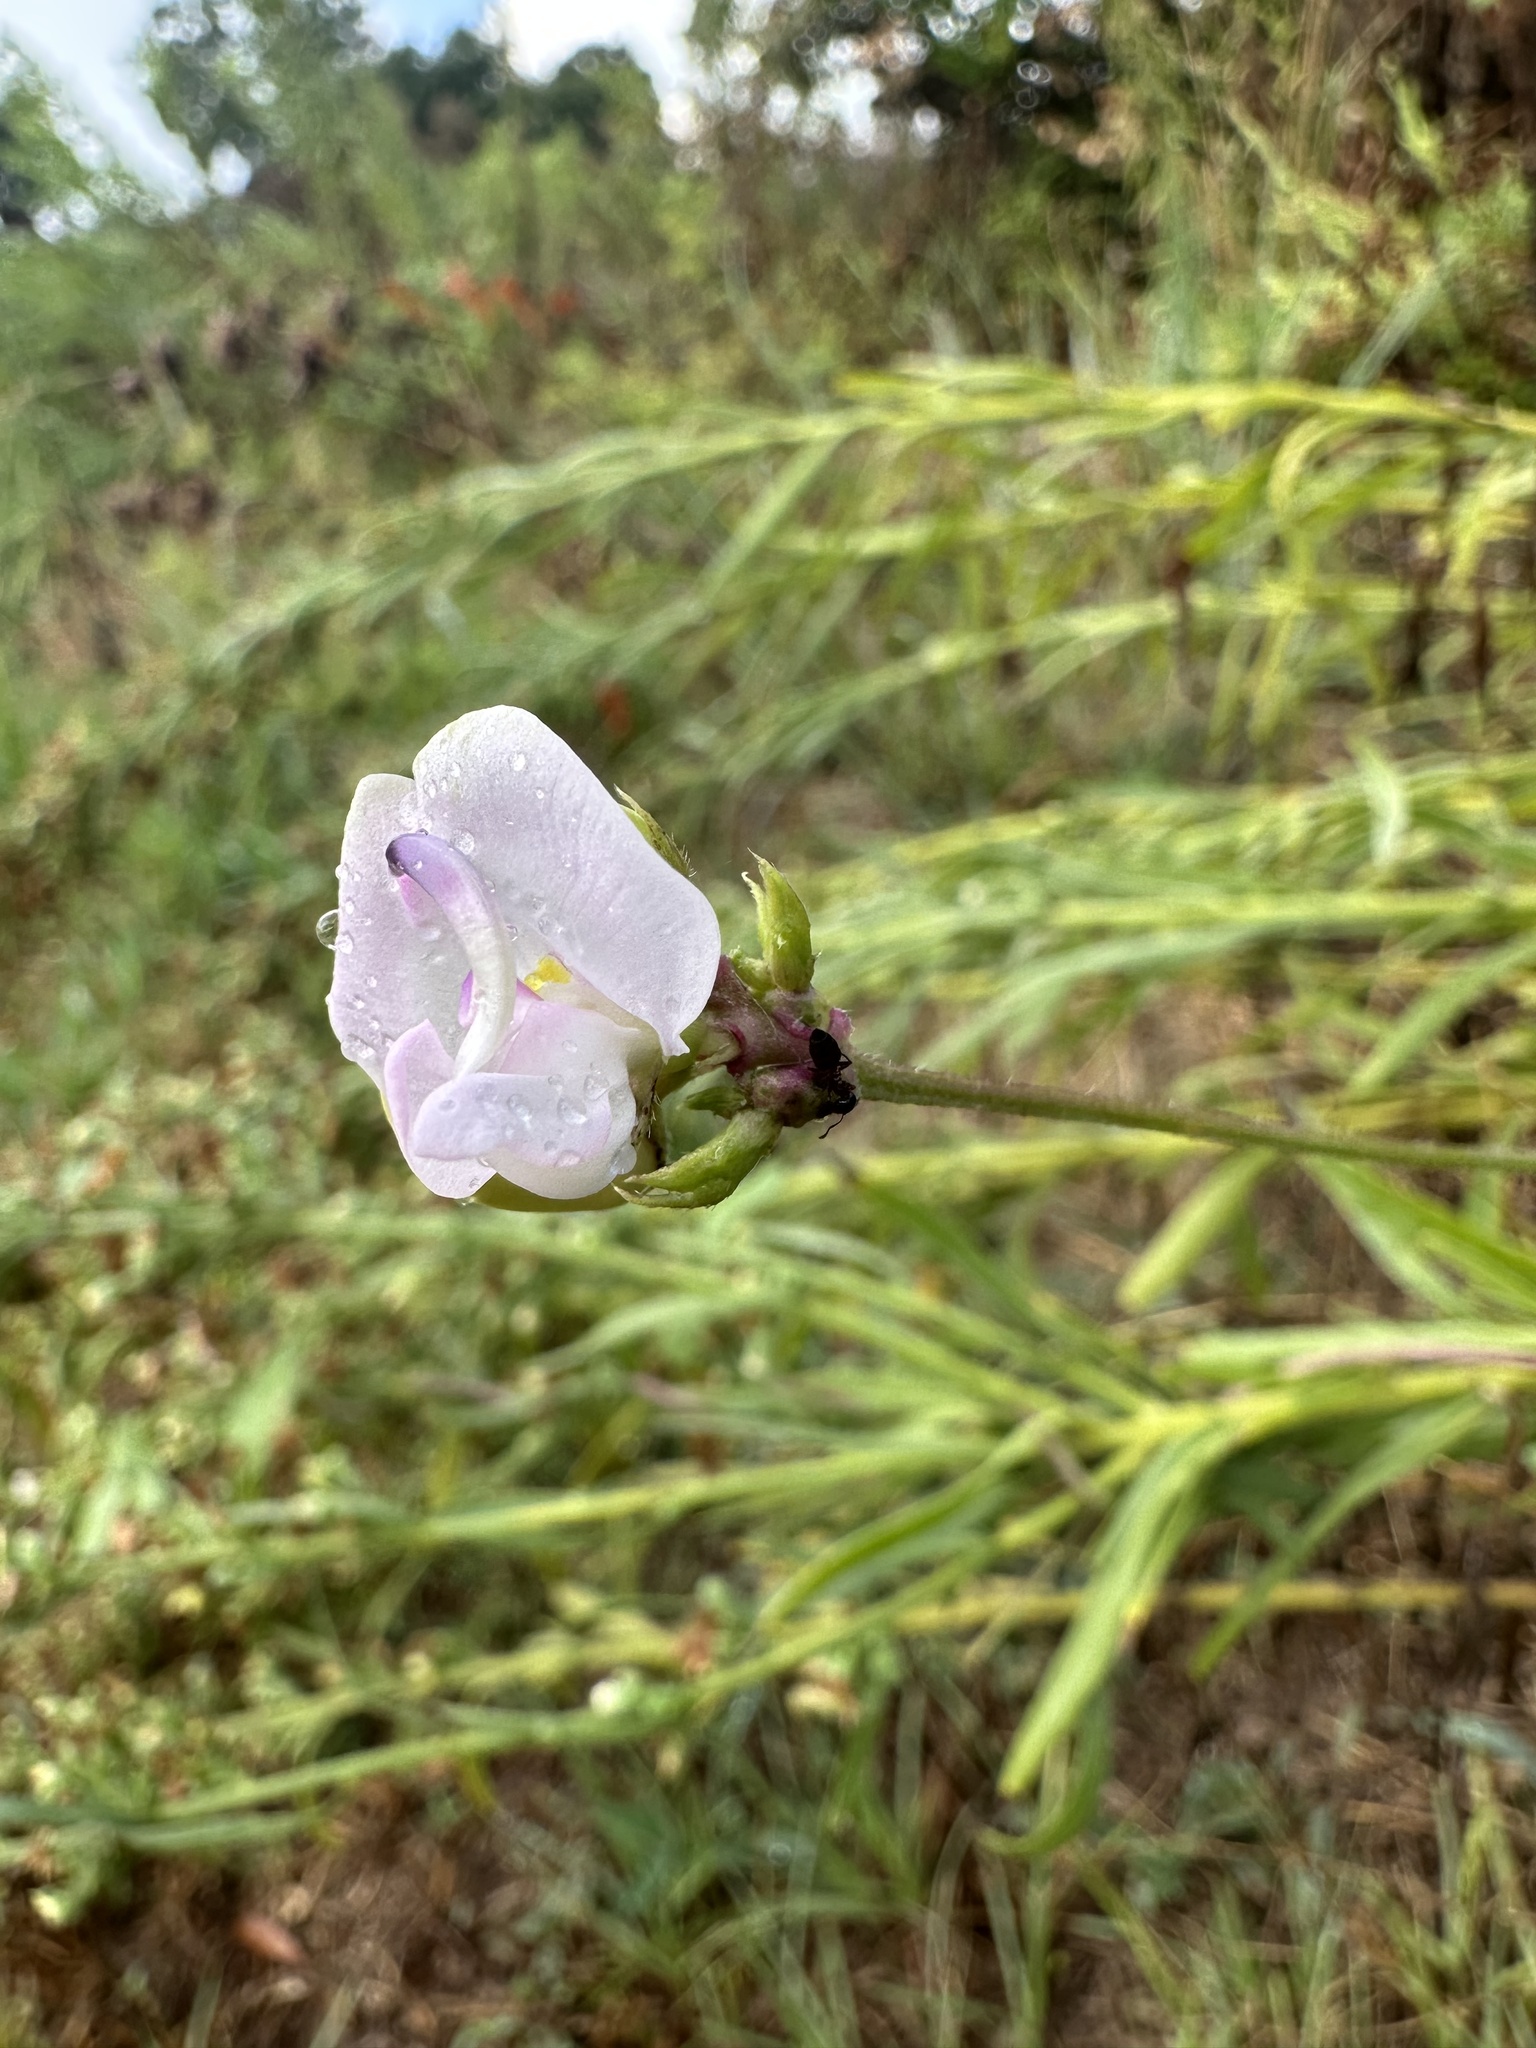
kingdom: Plantae
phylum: Tracheophyta
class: Magnoliopsida
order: Fabales
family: Fabaceae
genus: Strophostyles
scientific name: Strophostyles helvola
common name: Trailing wild bean
